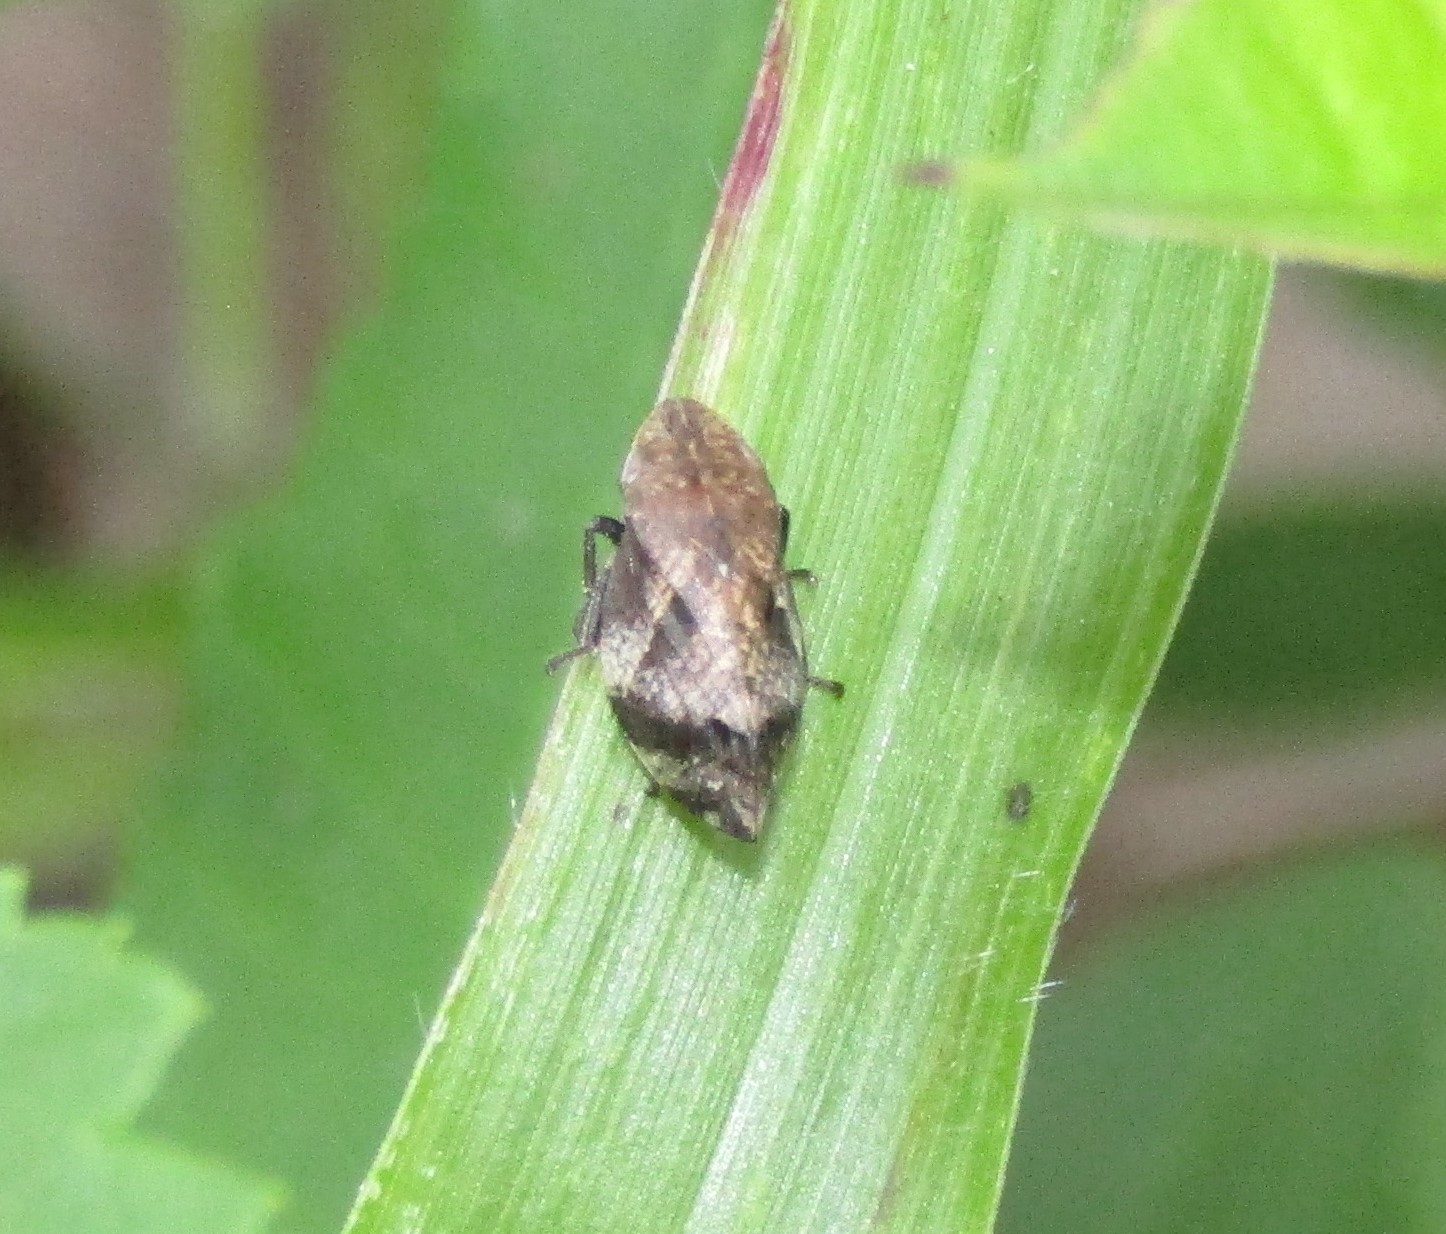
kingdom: Animalia
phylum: Arthropoda
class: Insecta
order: Hemiptera
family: Aphrophoridae
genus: Lepyronia
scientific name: Lepyronia quadrangularis
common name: Diamond-backed spittlebug
